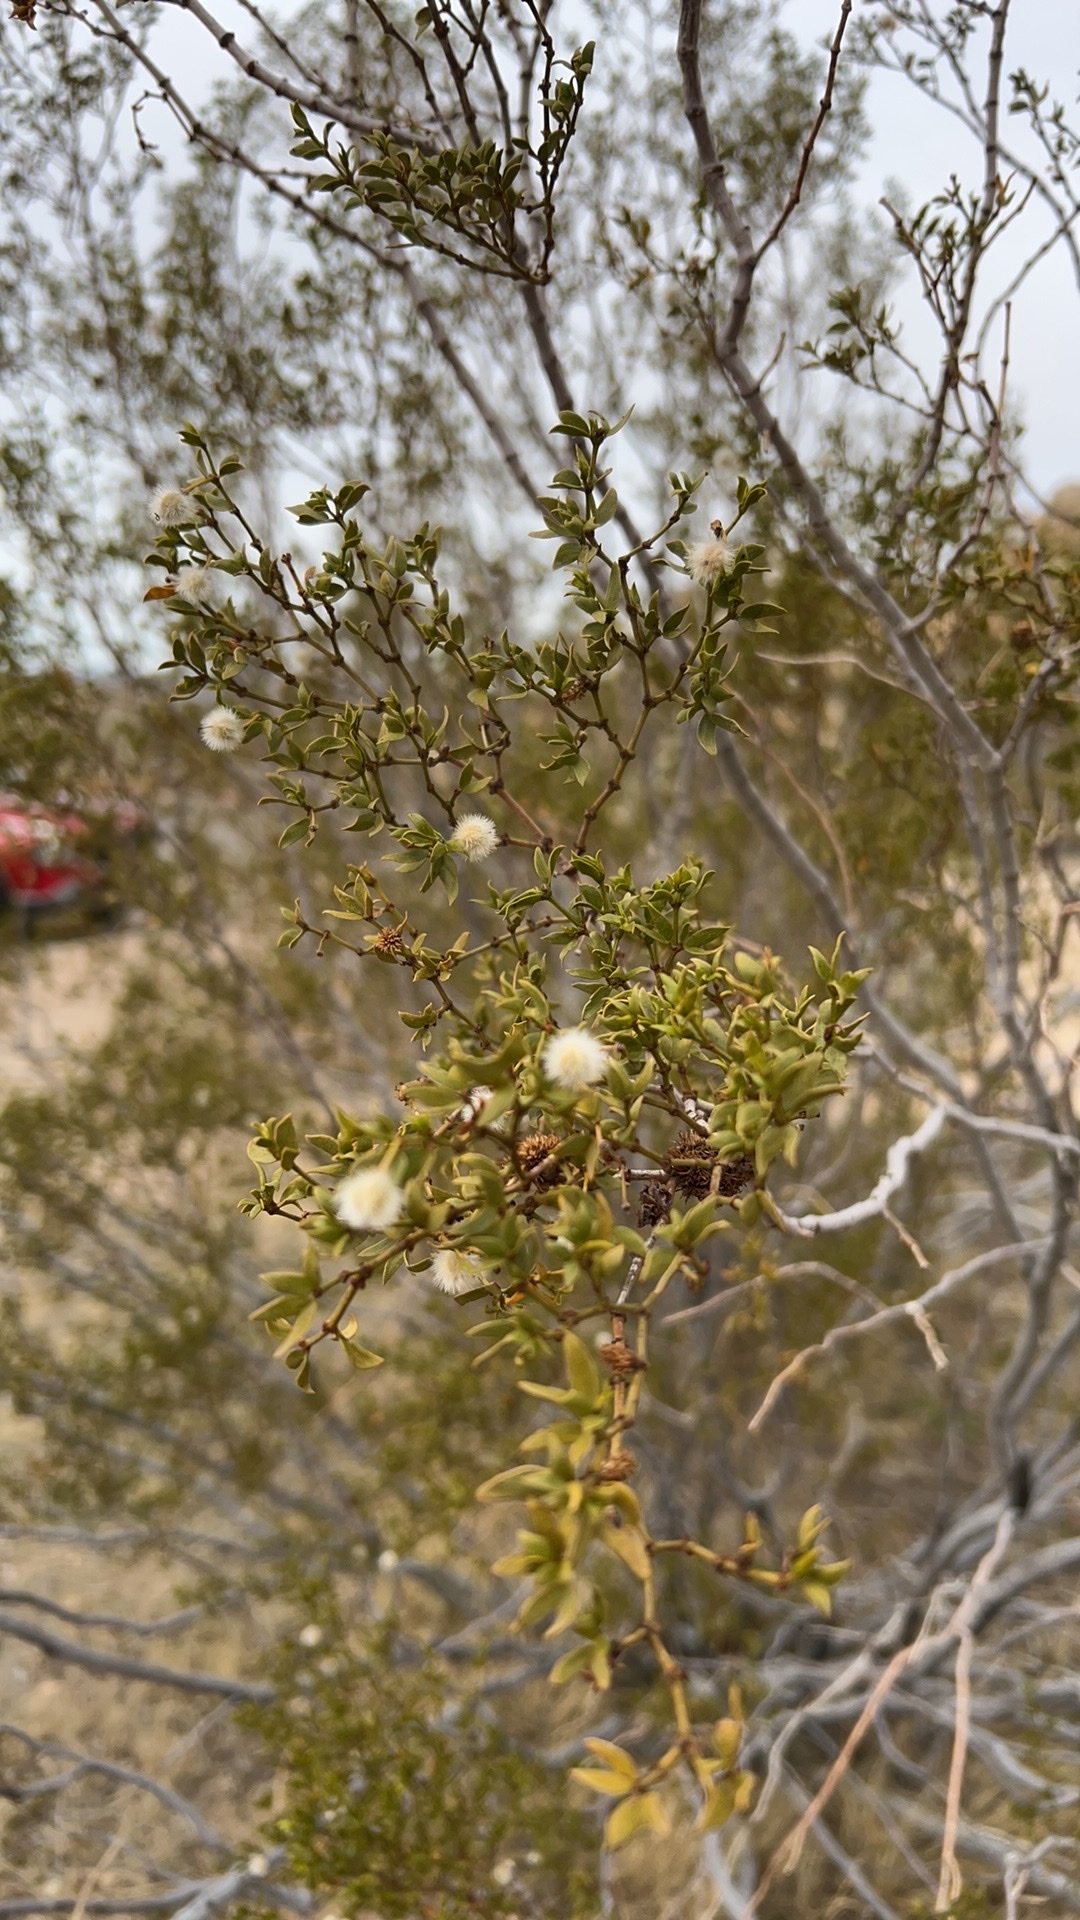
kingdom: Plantae
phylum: Tracheophyta
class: Magnoliopsida
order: Zygophyllales
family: Zygophyllaceae
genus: Larrea
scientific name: Larrea tridentata
